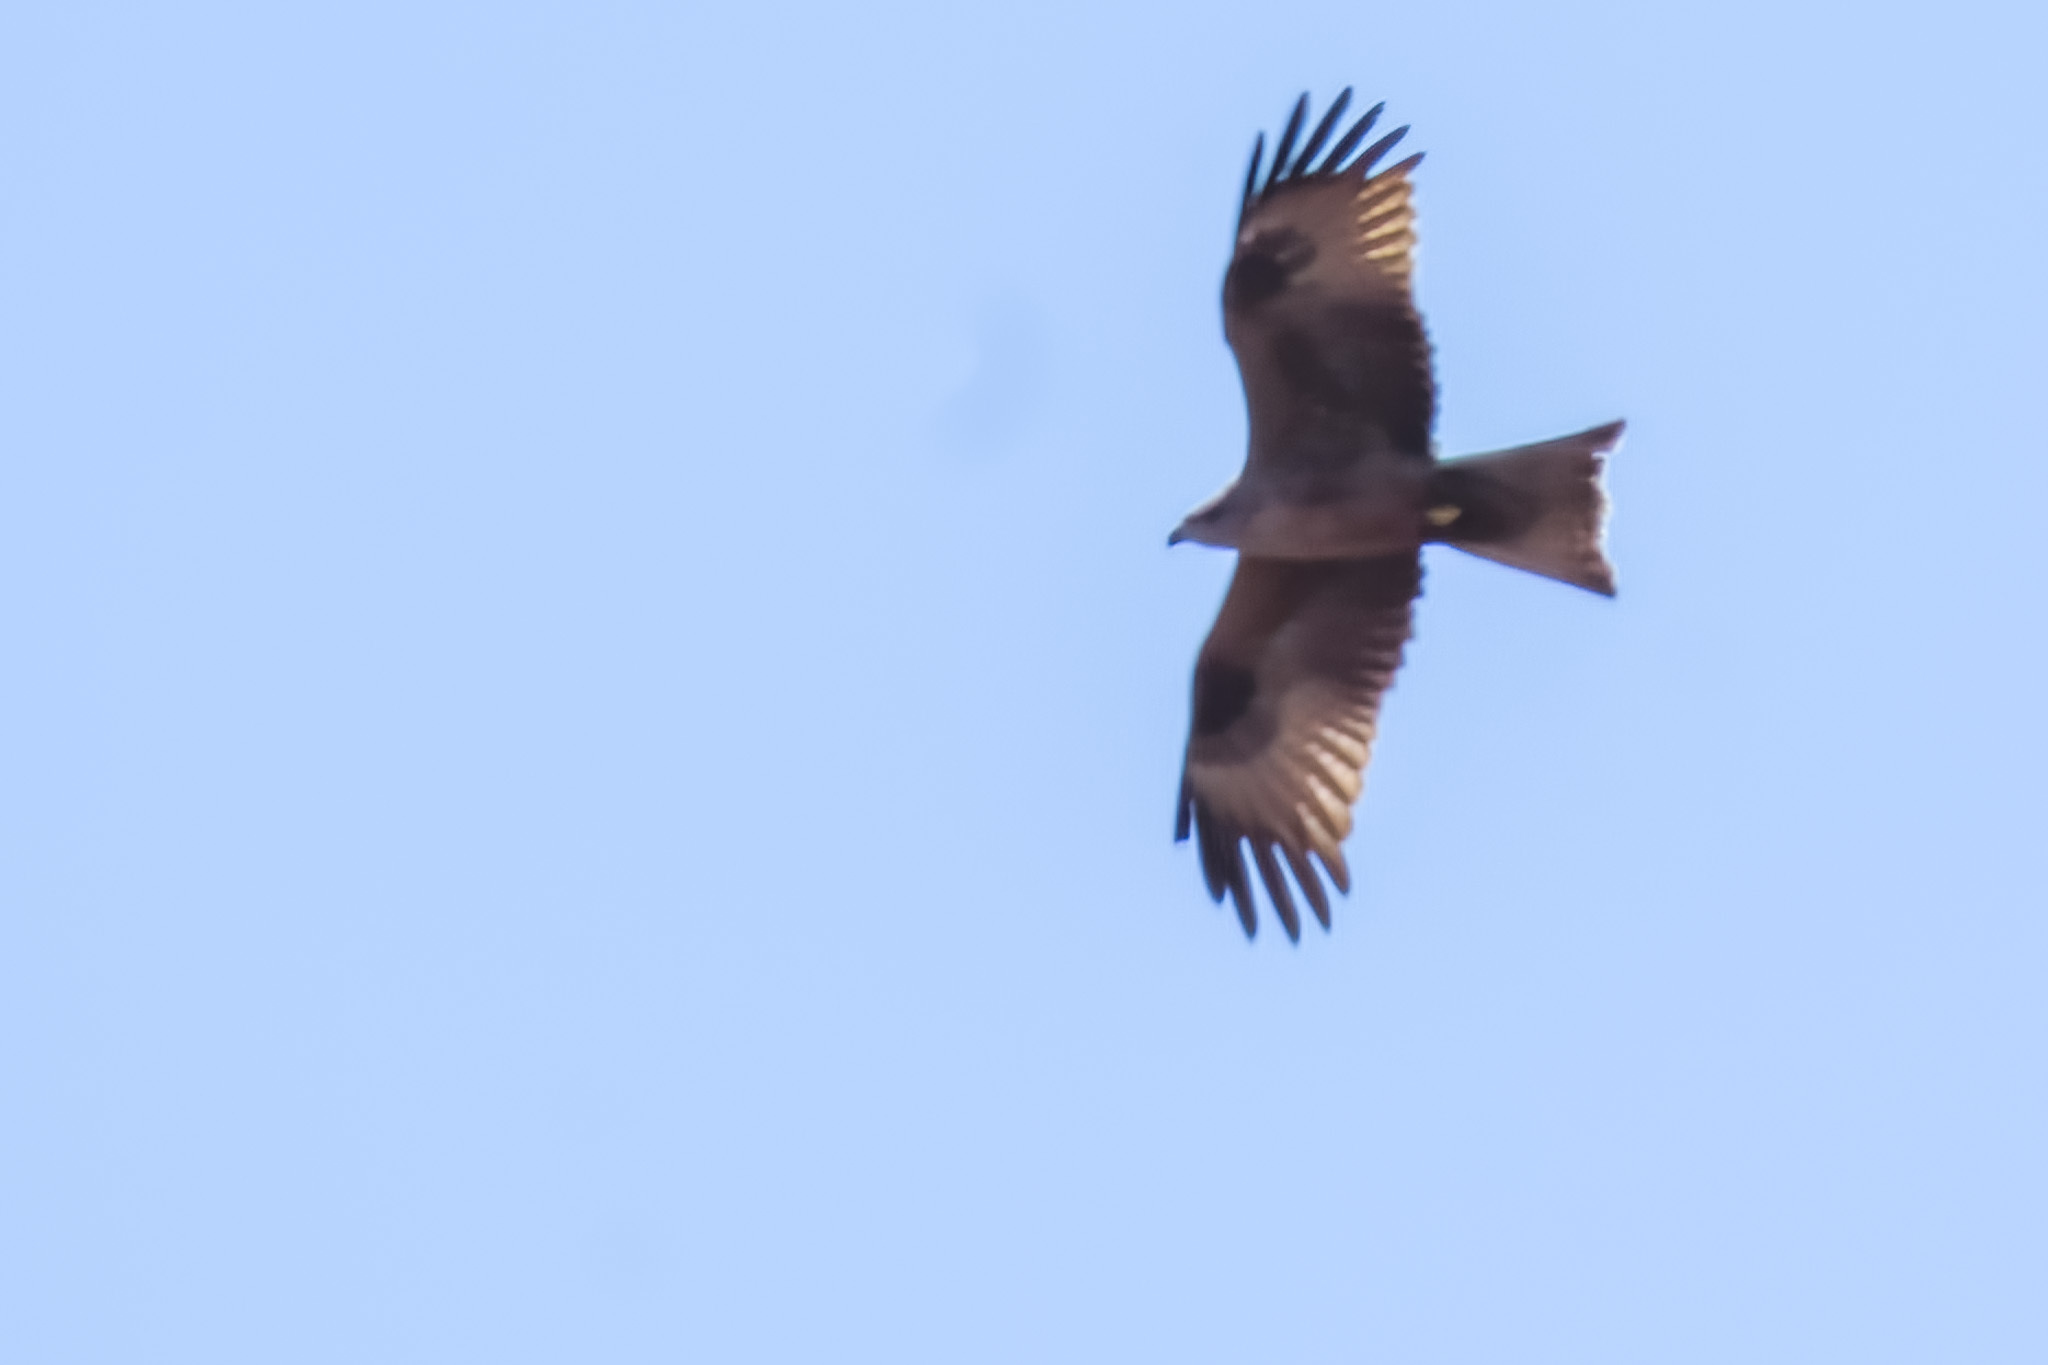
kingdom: Animalia
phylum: Chordata
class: Aves
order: Accipitriformes
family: Accipitridae
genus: Milvus
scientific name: Milvus migrans
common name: Black kite
